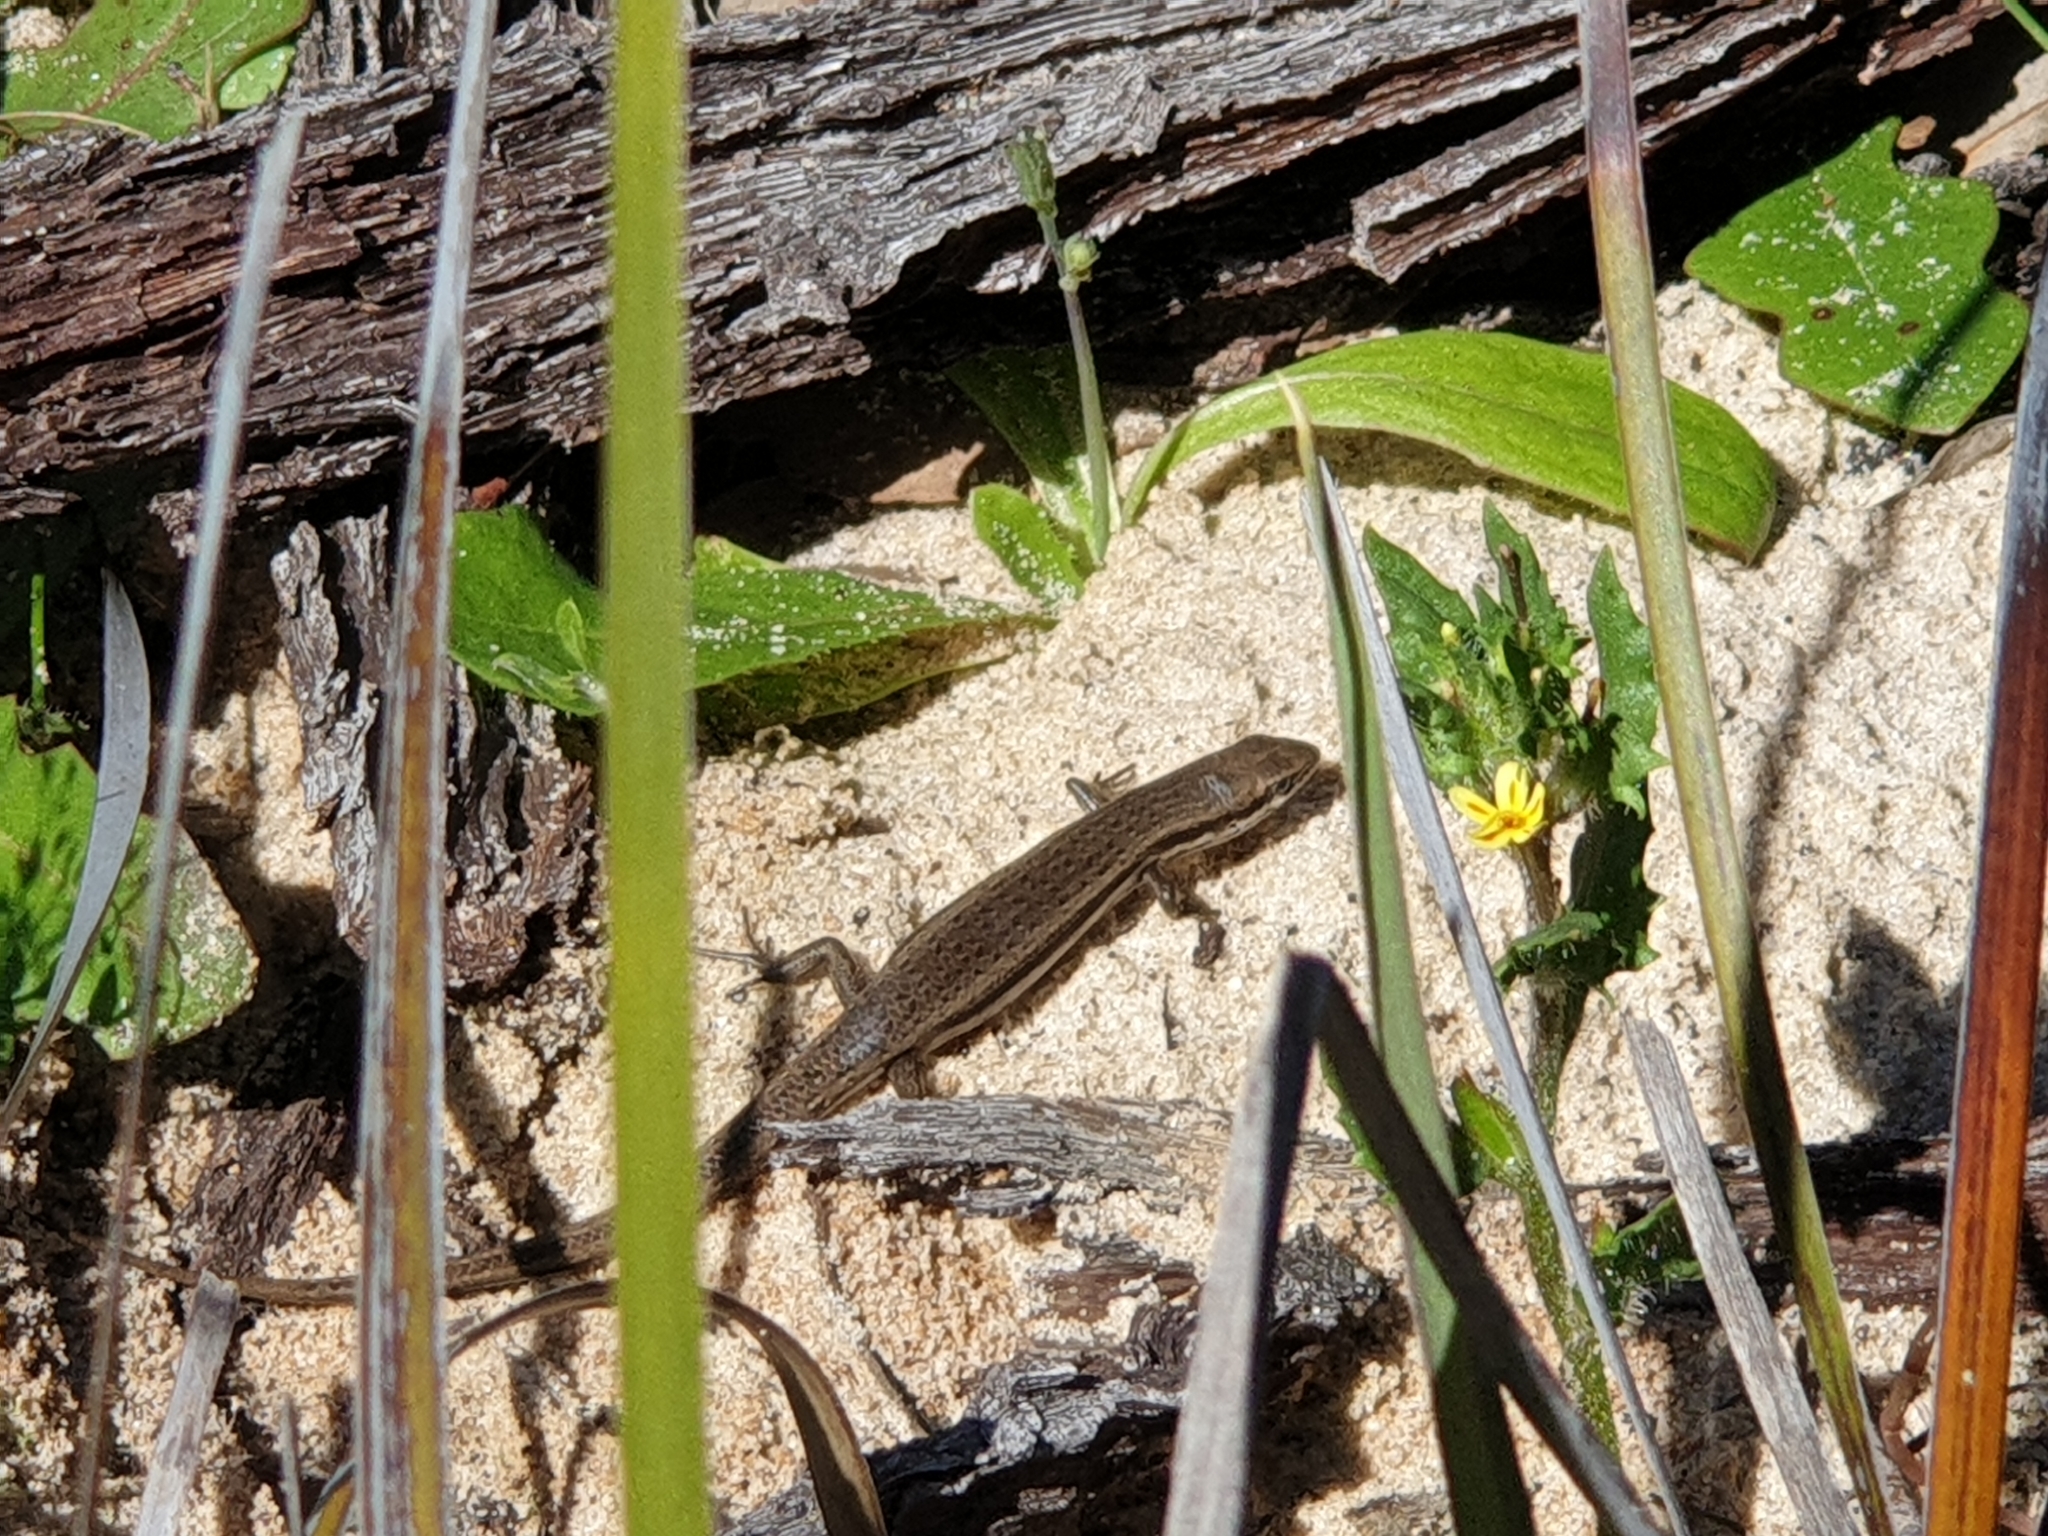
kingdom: Animalia
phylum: Chordata
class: Squamata
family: Scincidae
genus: Morethia
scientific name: Morethia obscura
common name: Shrubland morethia skink
